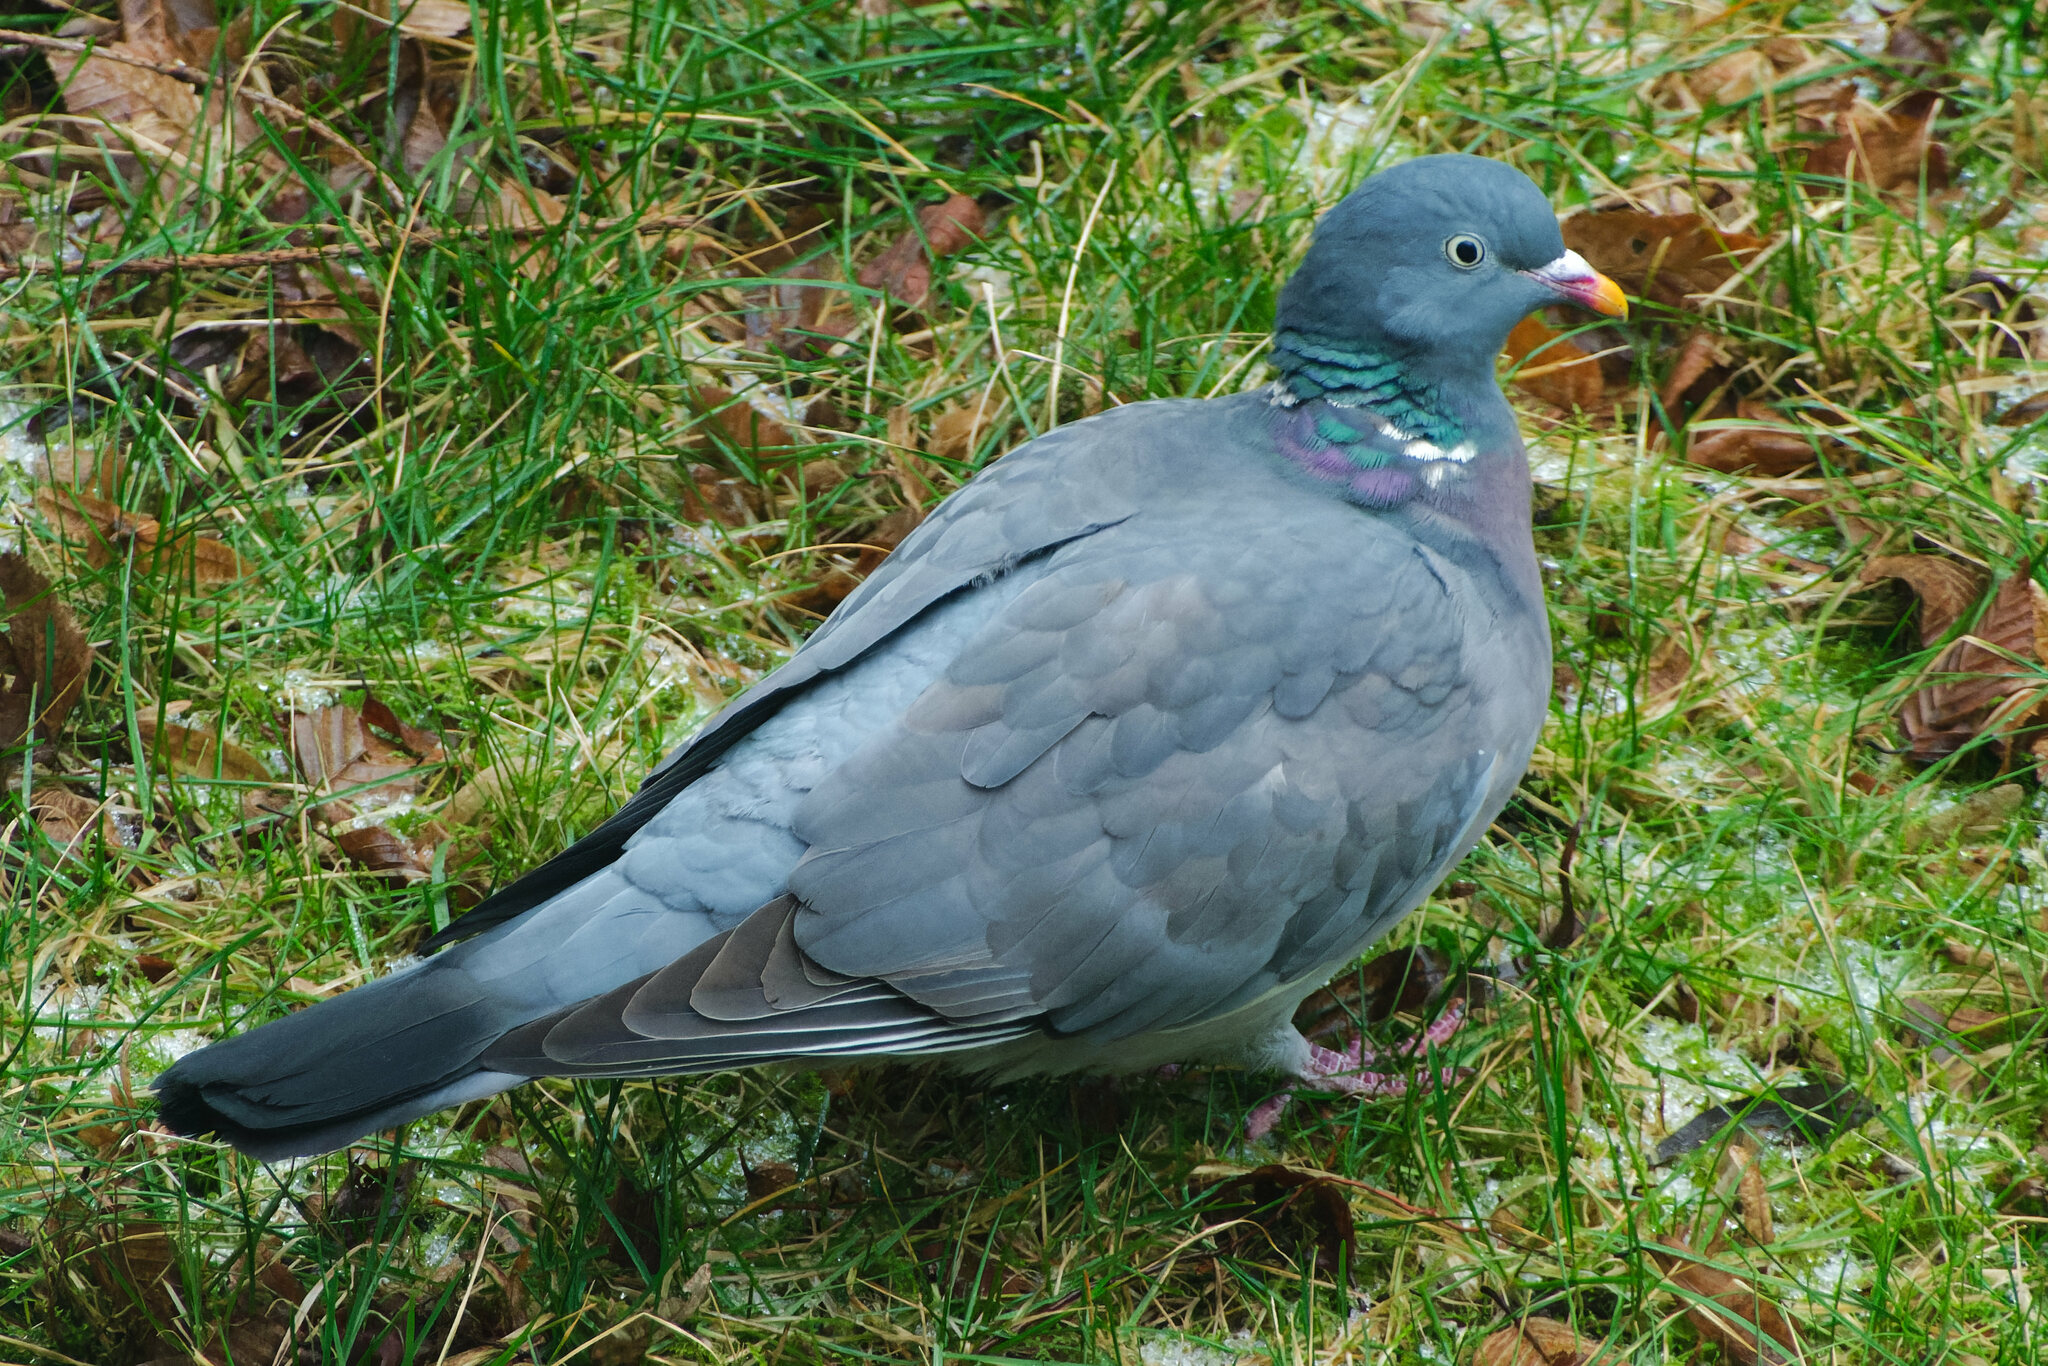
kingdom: Animalia
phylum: Chordata
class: Aves
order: Columbiformes
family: Columbidae
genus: Columba
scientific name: Columba palumbus
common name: Common wood pigeon
